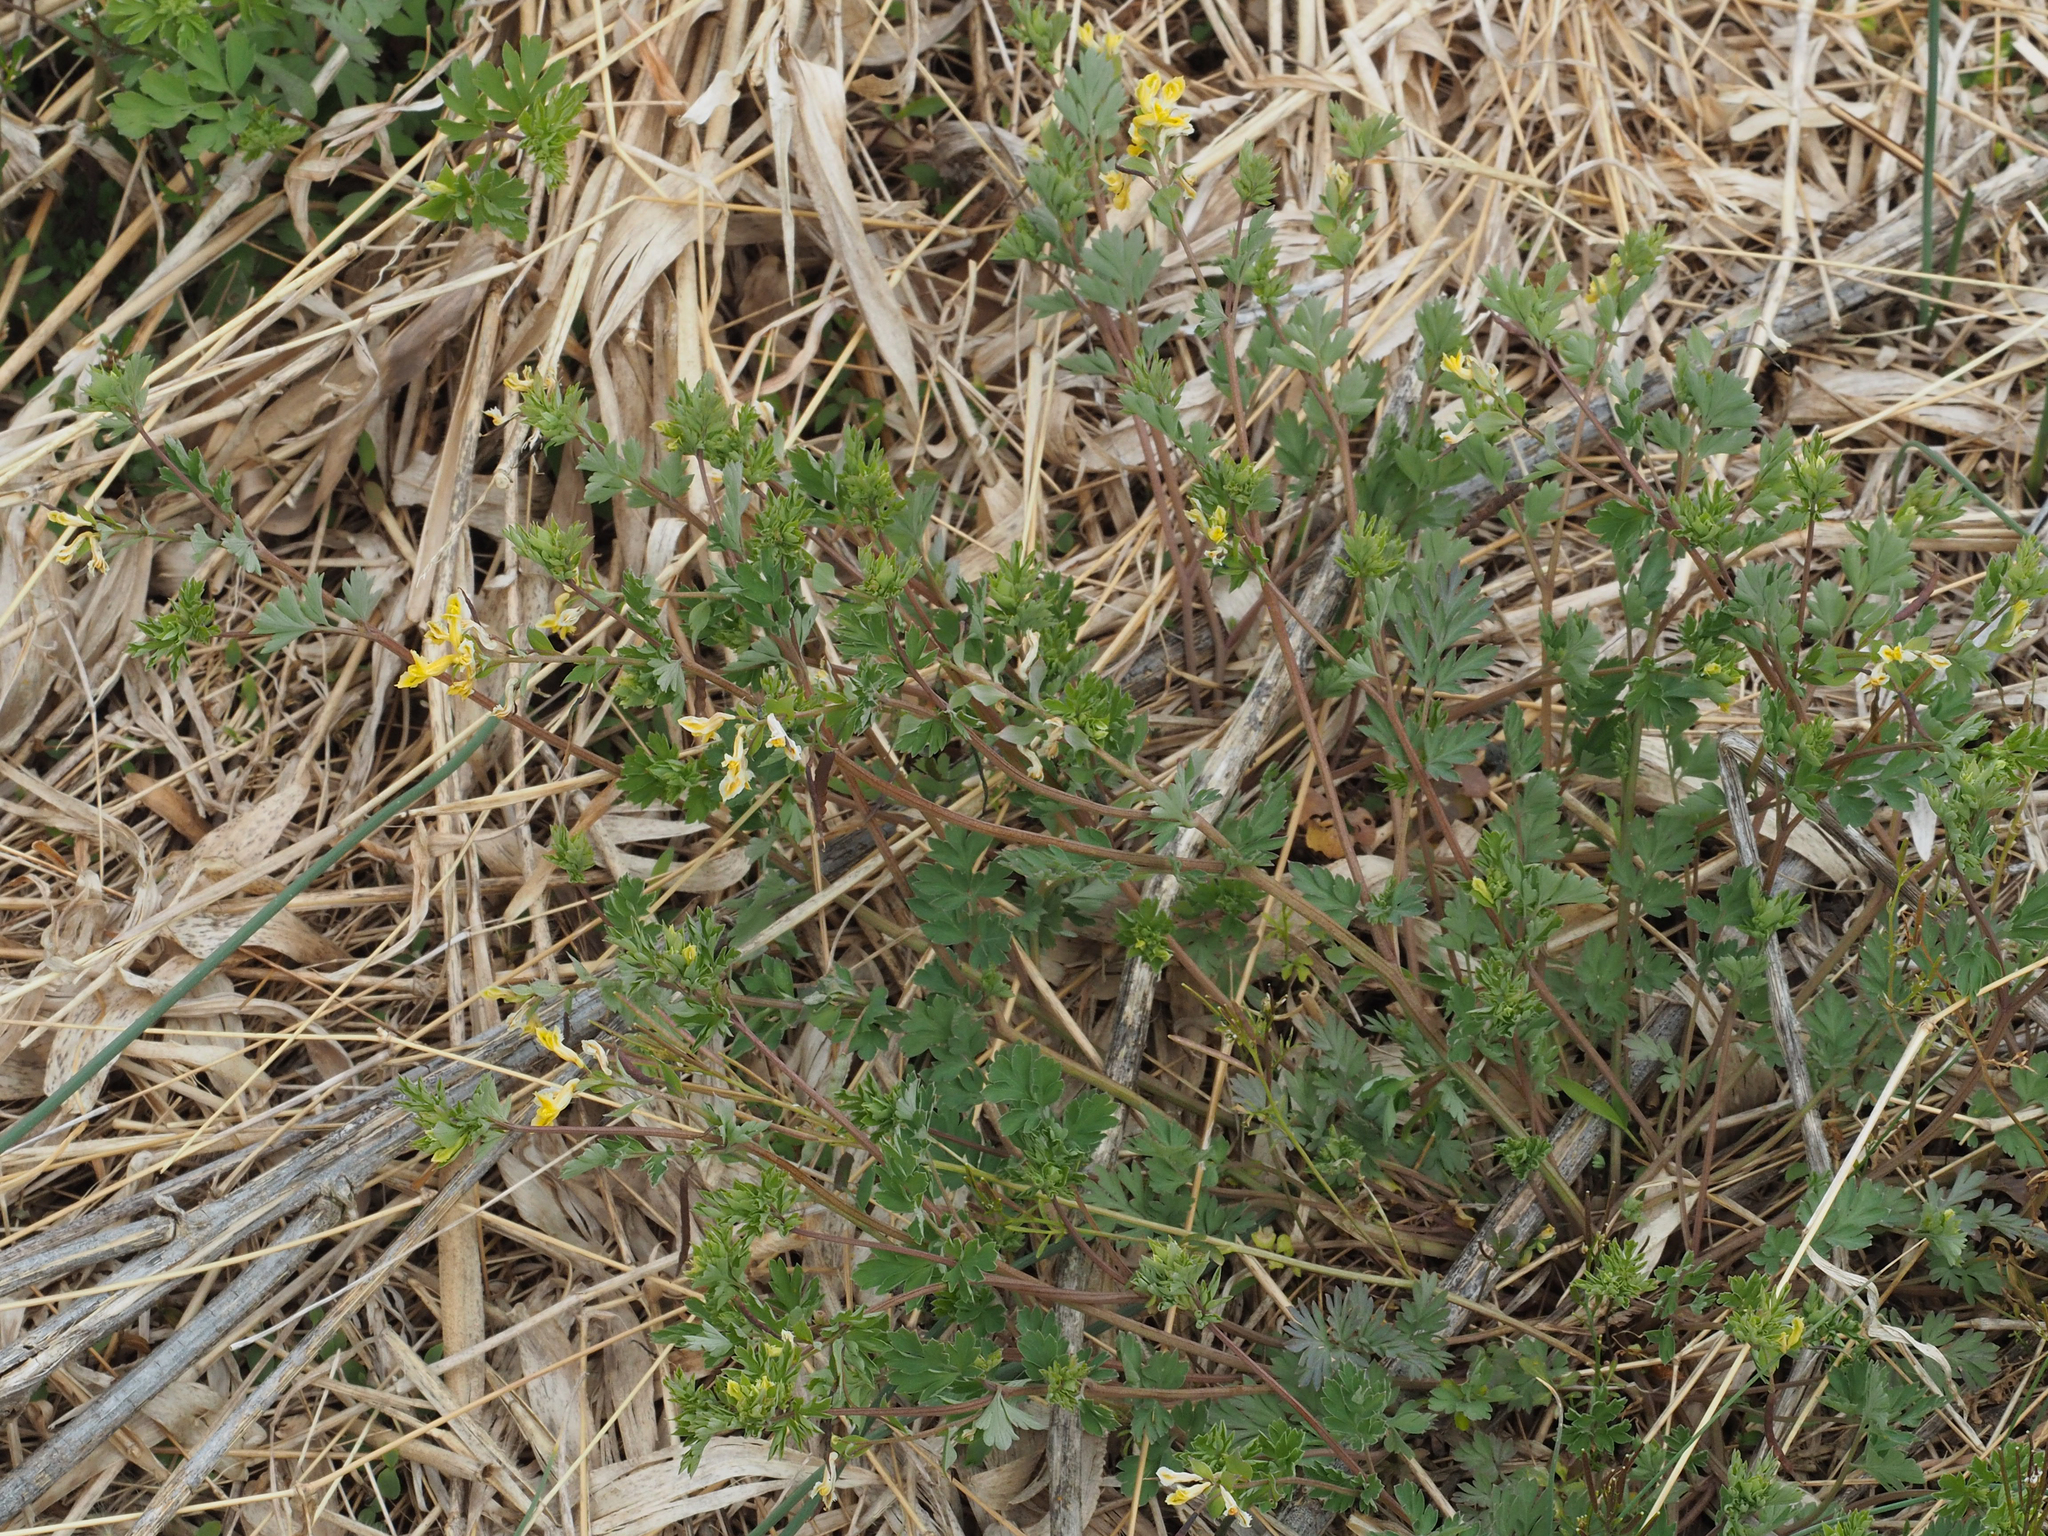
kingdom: Plantae
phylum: Tracheophyta
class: Magnoliopsida
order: Ranunculales
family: Papaveraceae
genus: Corydalis
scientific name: Corydalis flavula
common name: Yellow corydalis
